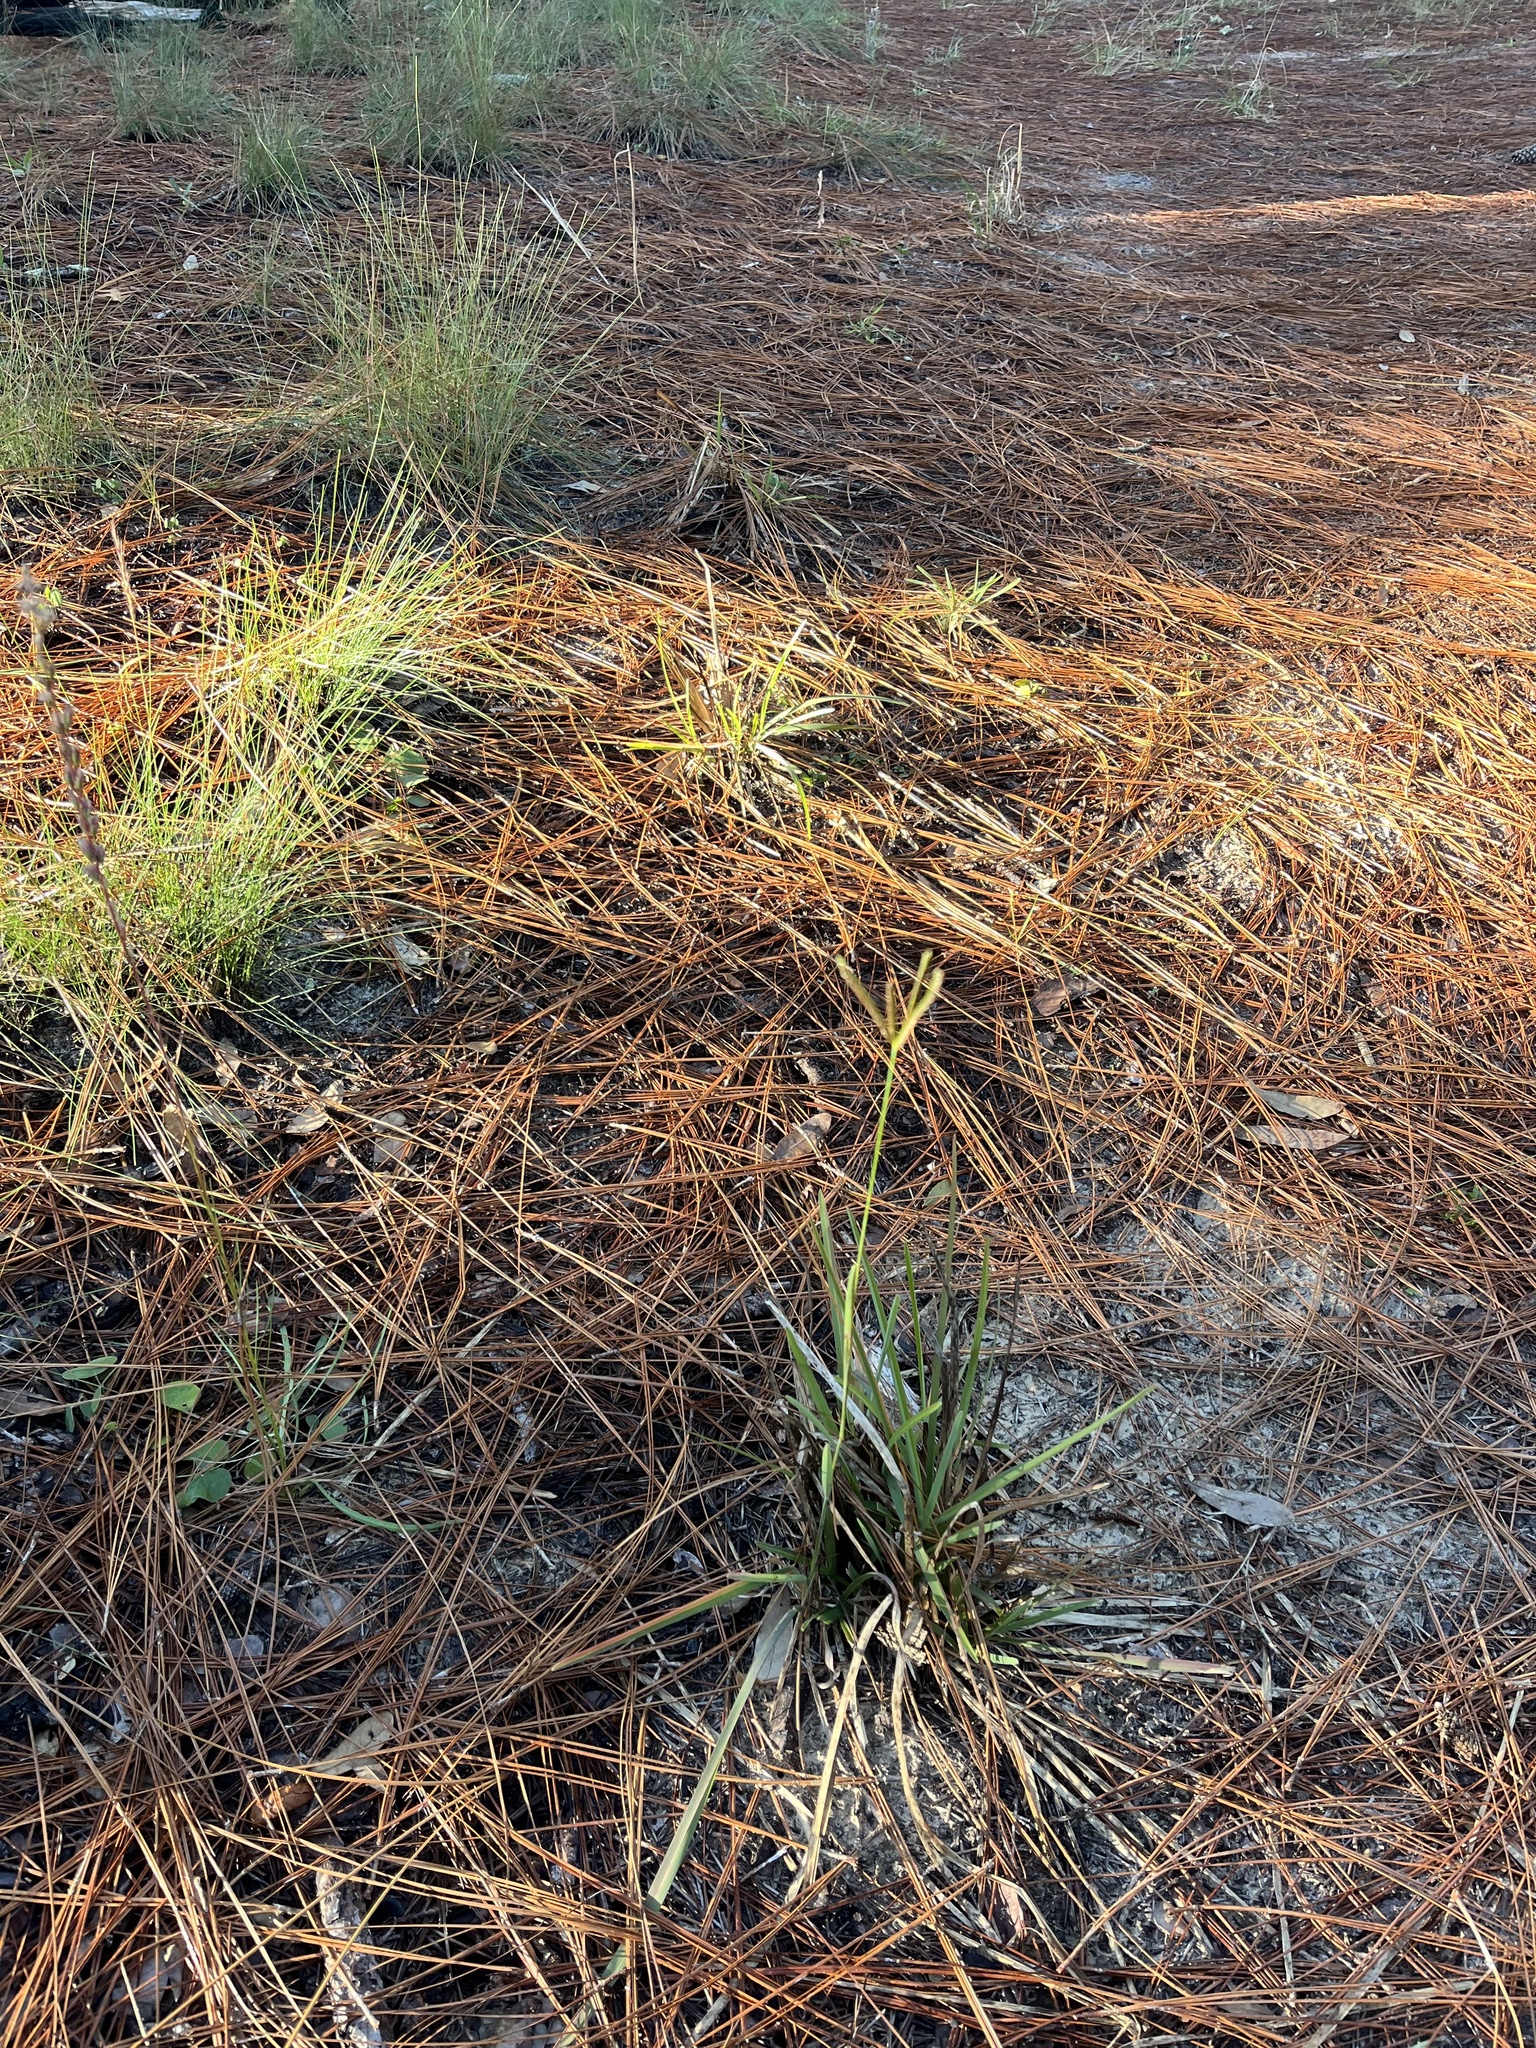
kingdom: Plantae
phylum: Tracheophyta
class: Liliopsida
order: Poales
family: Poaceae
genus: Eustachys
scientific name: Eustachys petraea
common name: Pinewoods fingergrass
